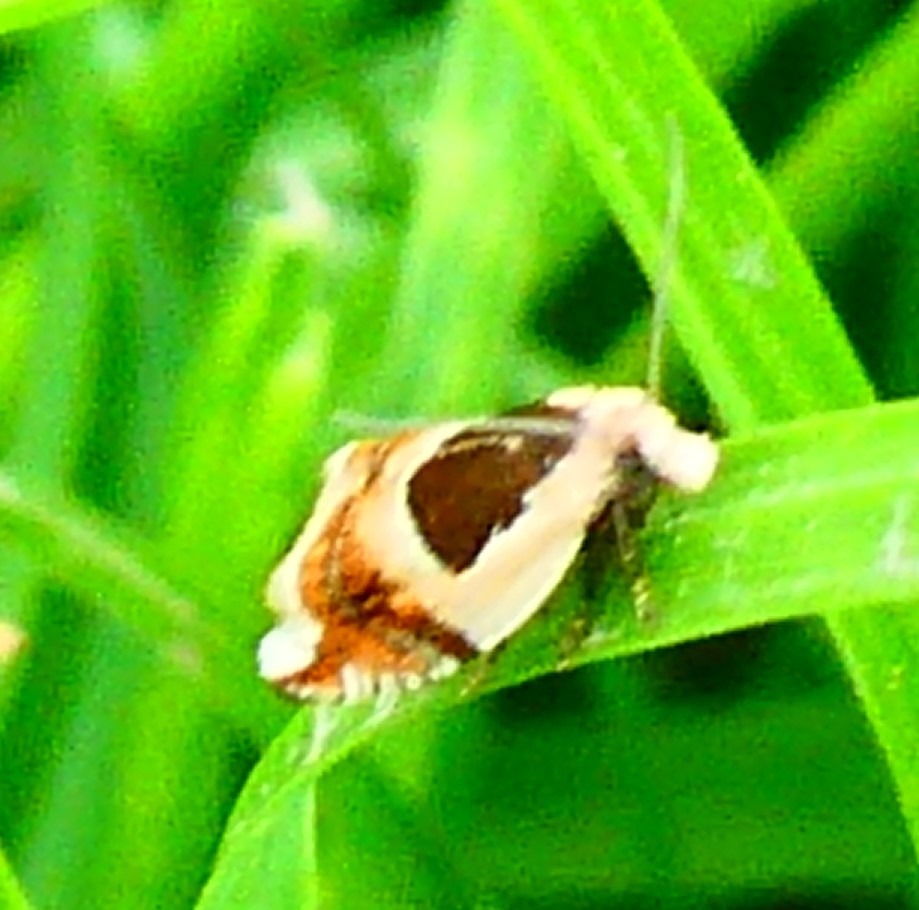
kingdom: Animalia
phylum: Arthropoda
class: Insecta
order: Lepidoptera
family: Tortricidae
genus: Ancylis
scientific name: Ancylis badiana
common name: Common roller
